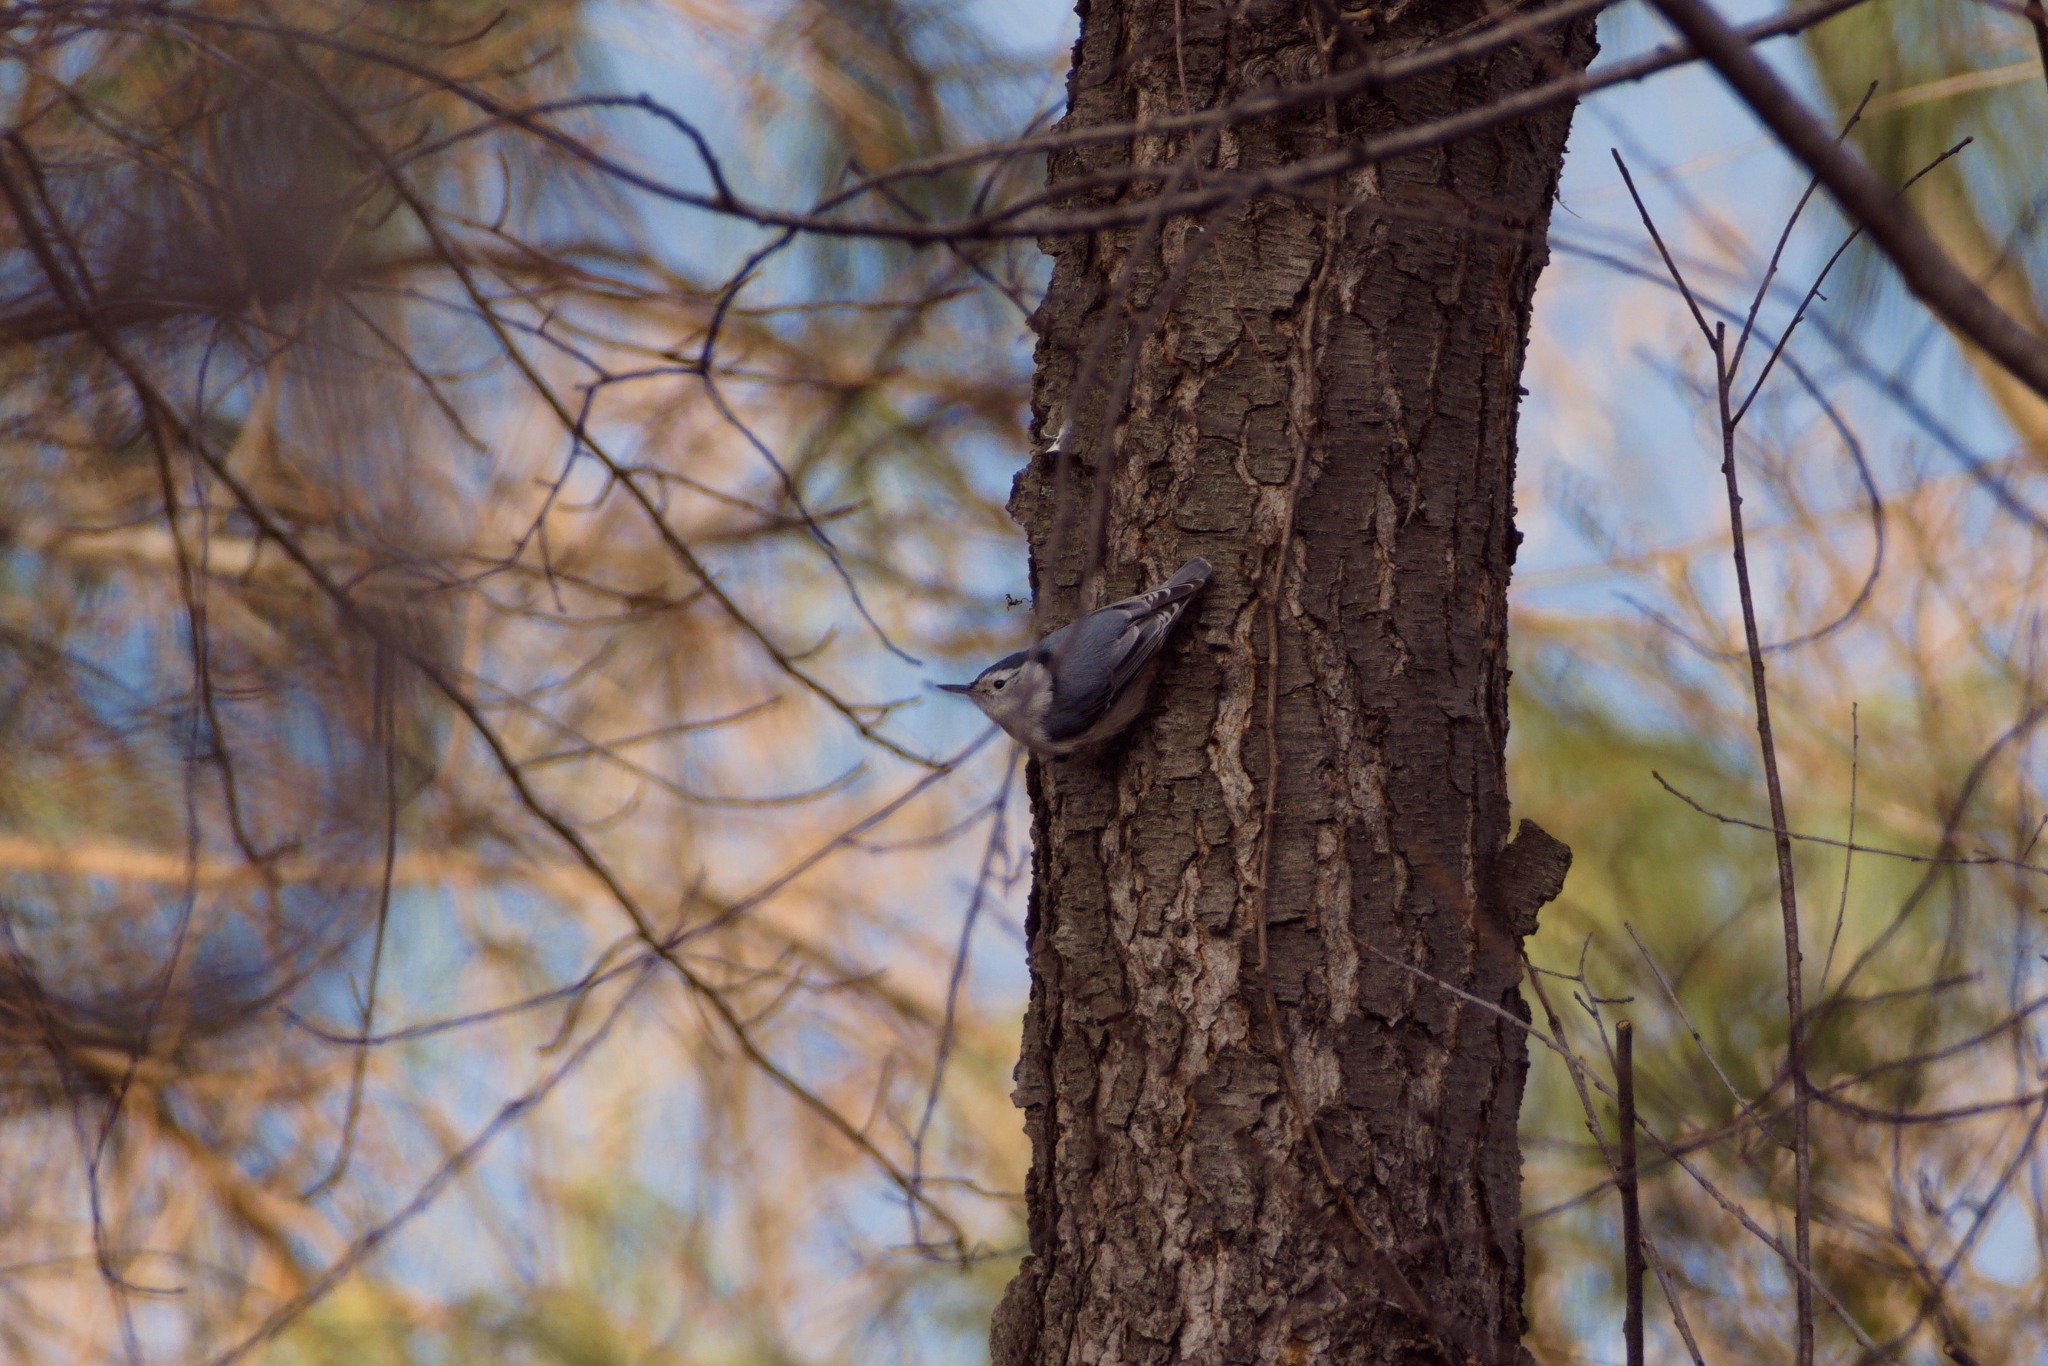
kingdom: Animalia
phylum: Chordata
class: Aves
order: Passeriformes
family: Sittidae
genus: Sitta
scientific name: Sitta carolinensis
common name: White-breasted nuthatch
